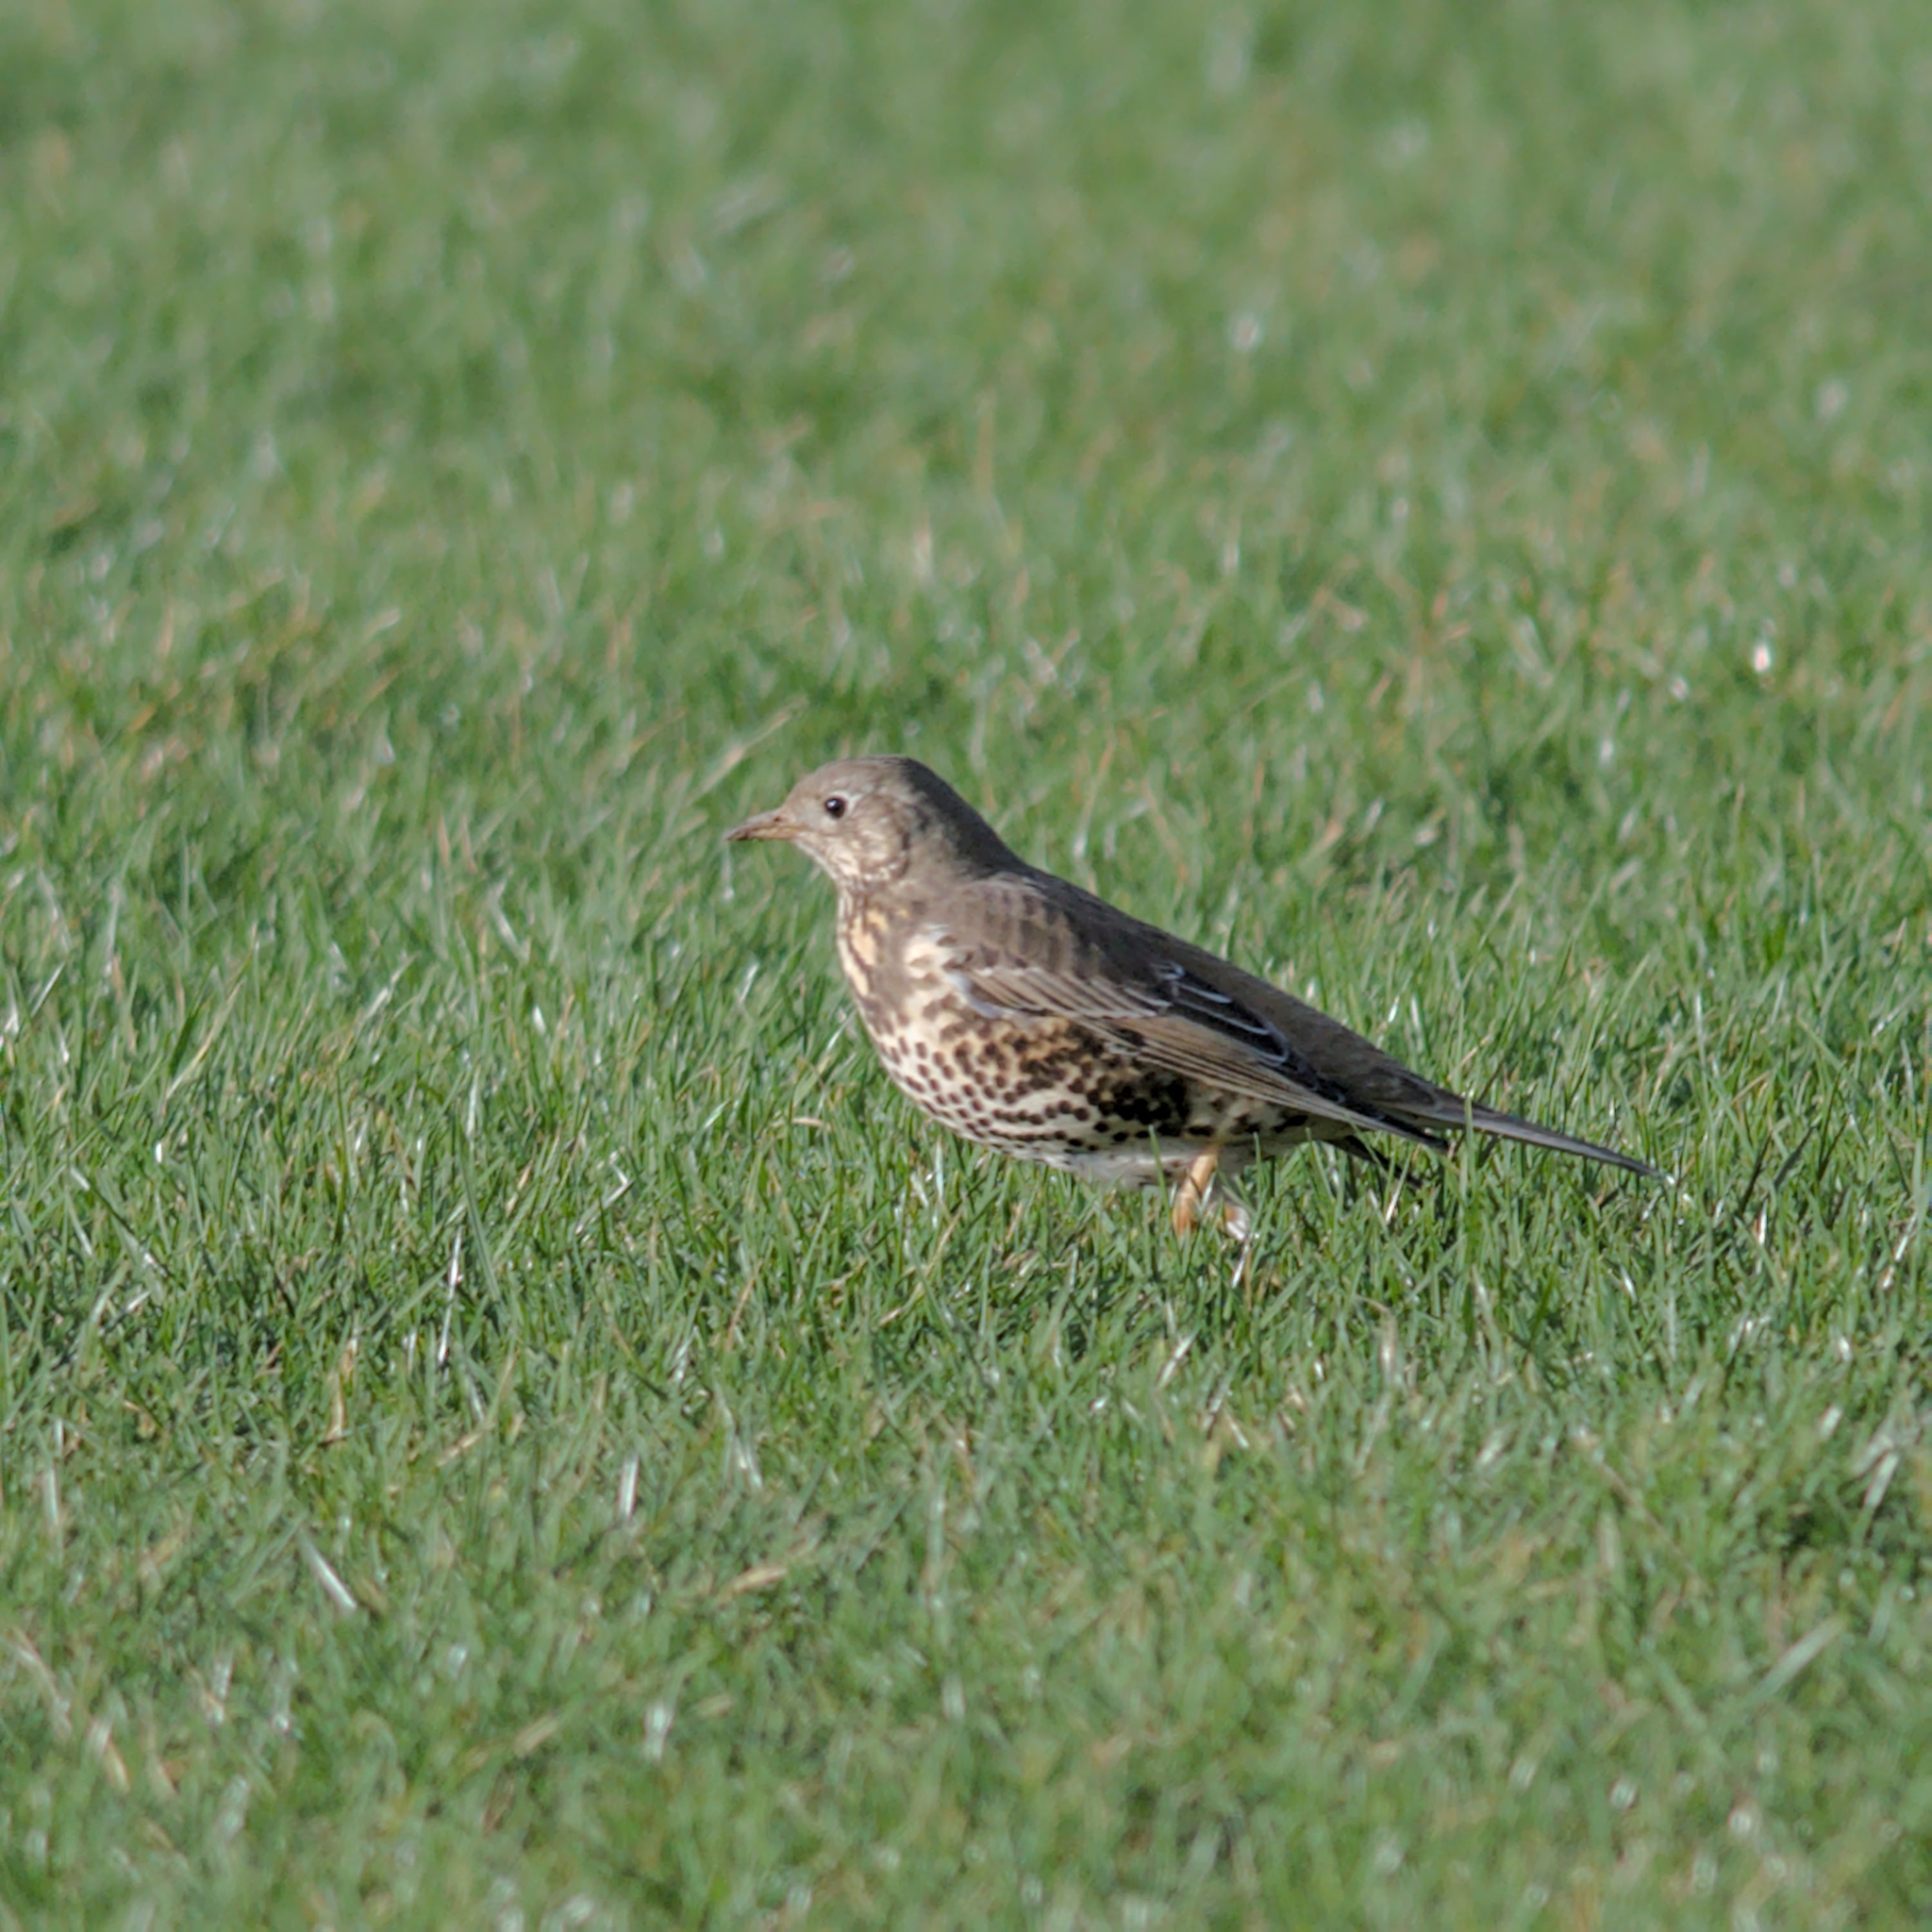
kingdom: Animalia
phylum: Chordata
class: Aves
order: Passeriformes
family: Turdidae
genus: Turdus
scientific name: Turdus viscivorus
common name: Mistle thrush
